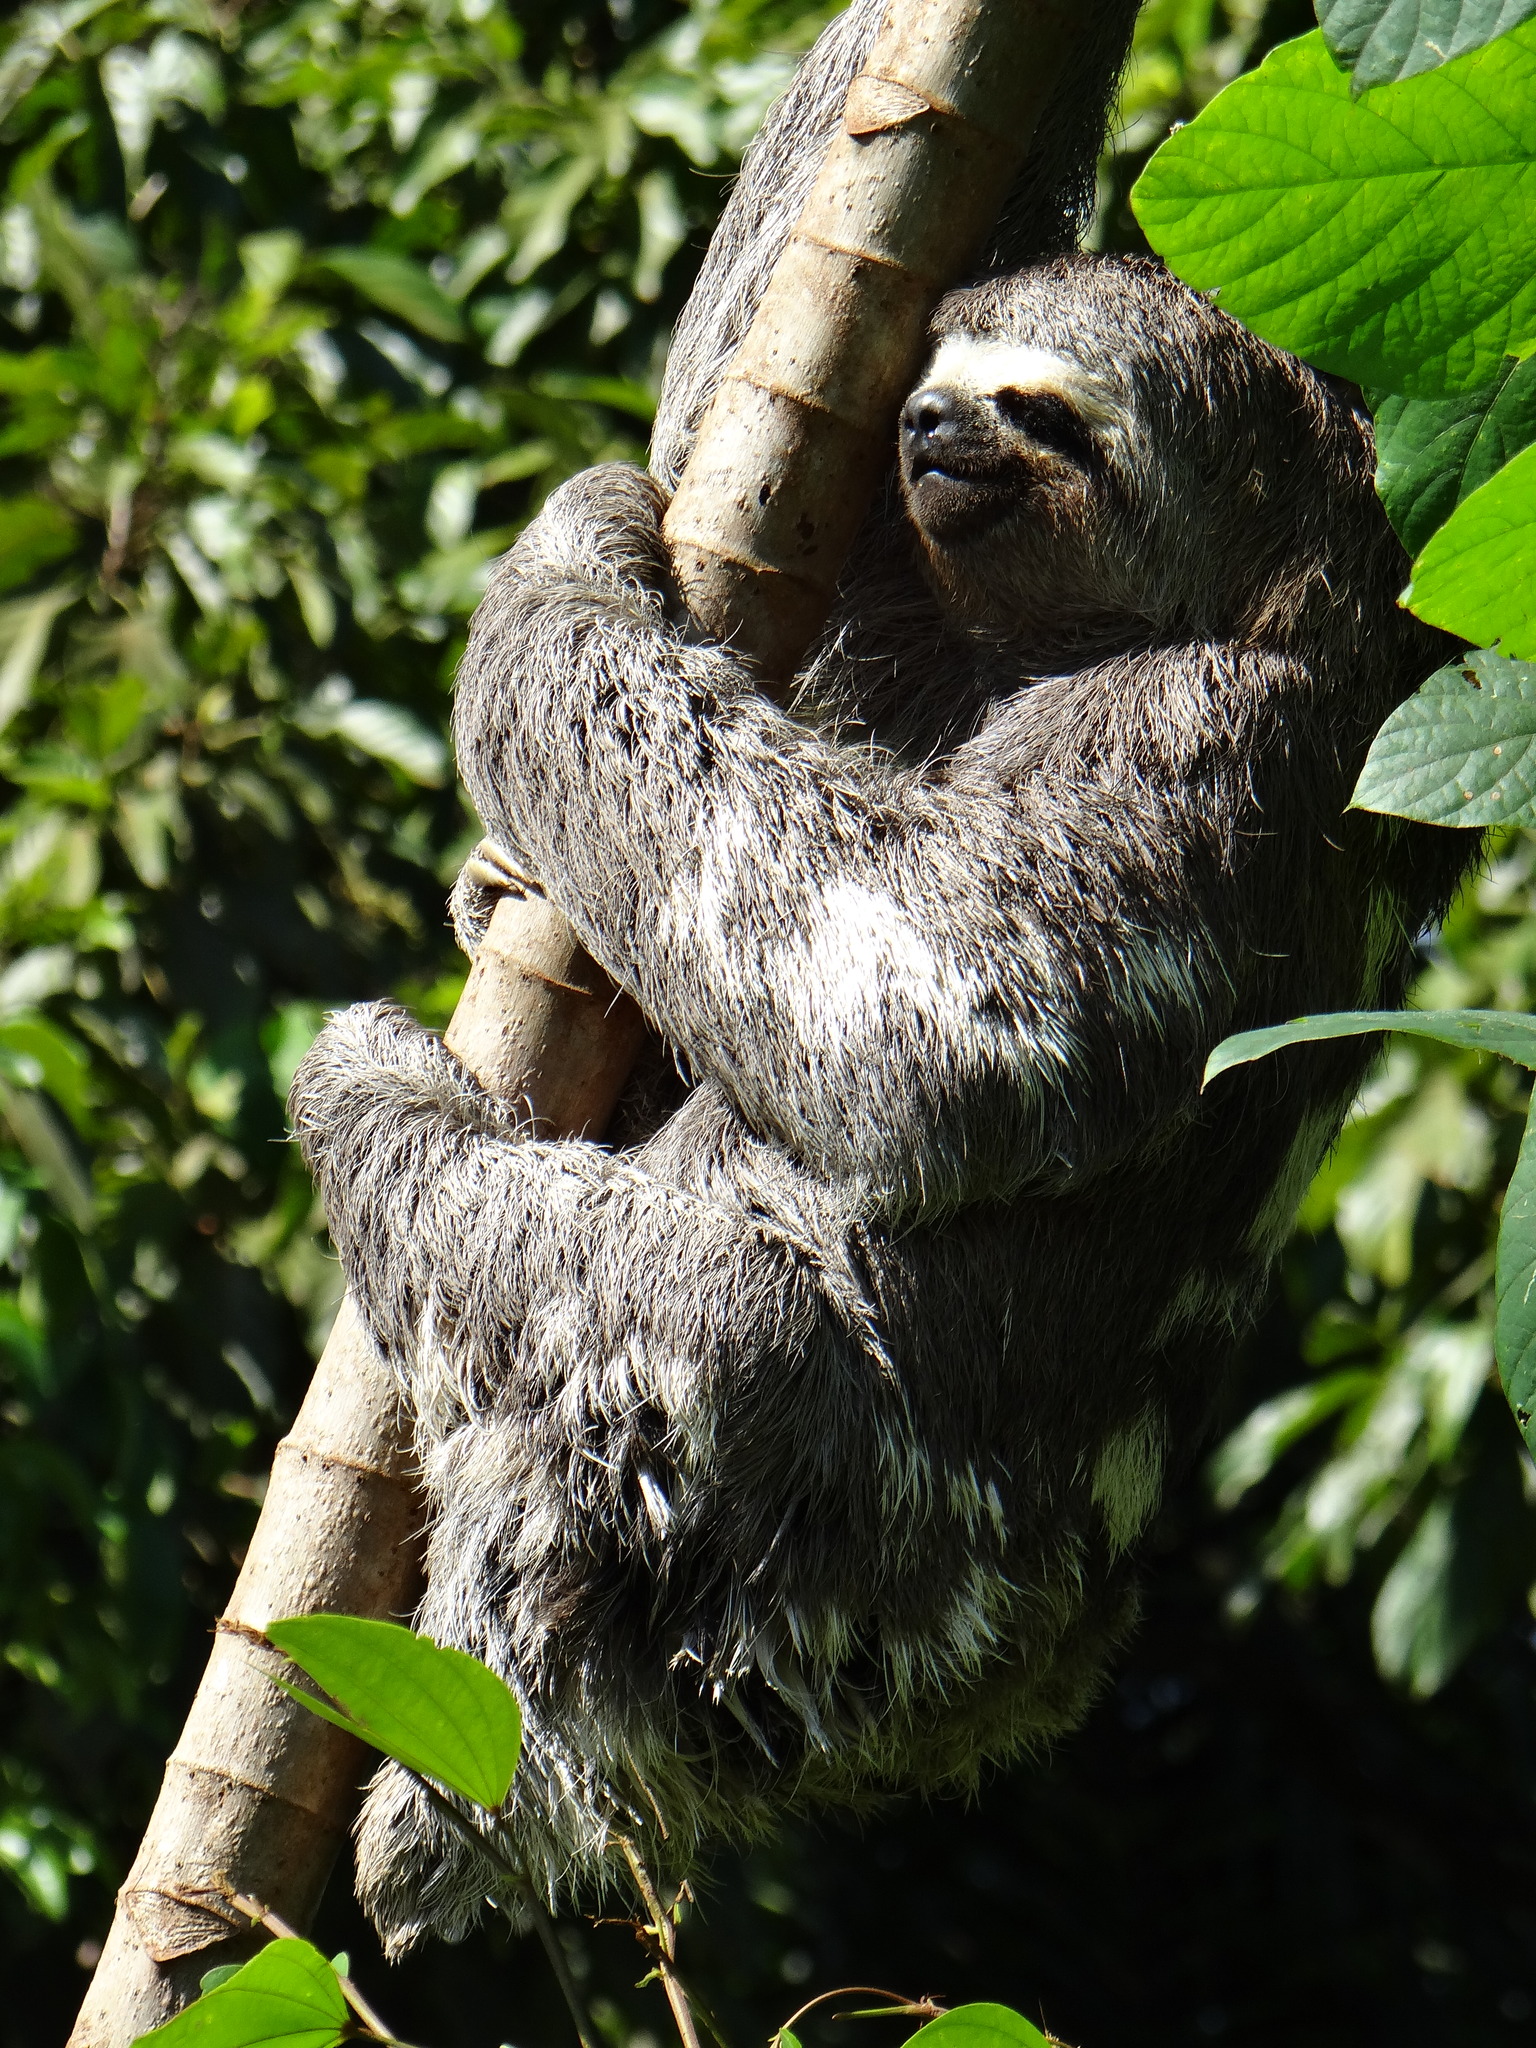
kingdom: Animalia
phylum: Chordata
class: Mammalia
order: Pilosa
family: Bradypodidae
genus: Bradypus
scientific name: Bradypus variegatus
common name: Brown-throated three-toed sloth
